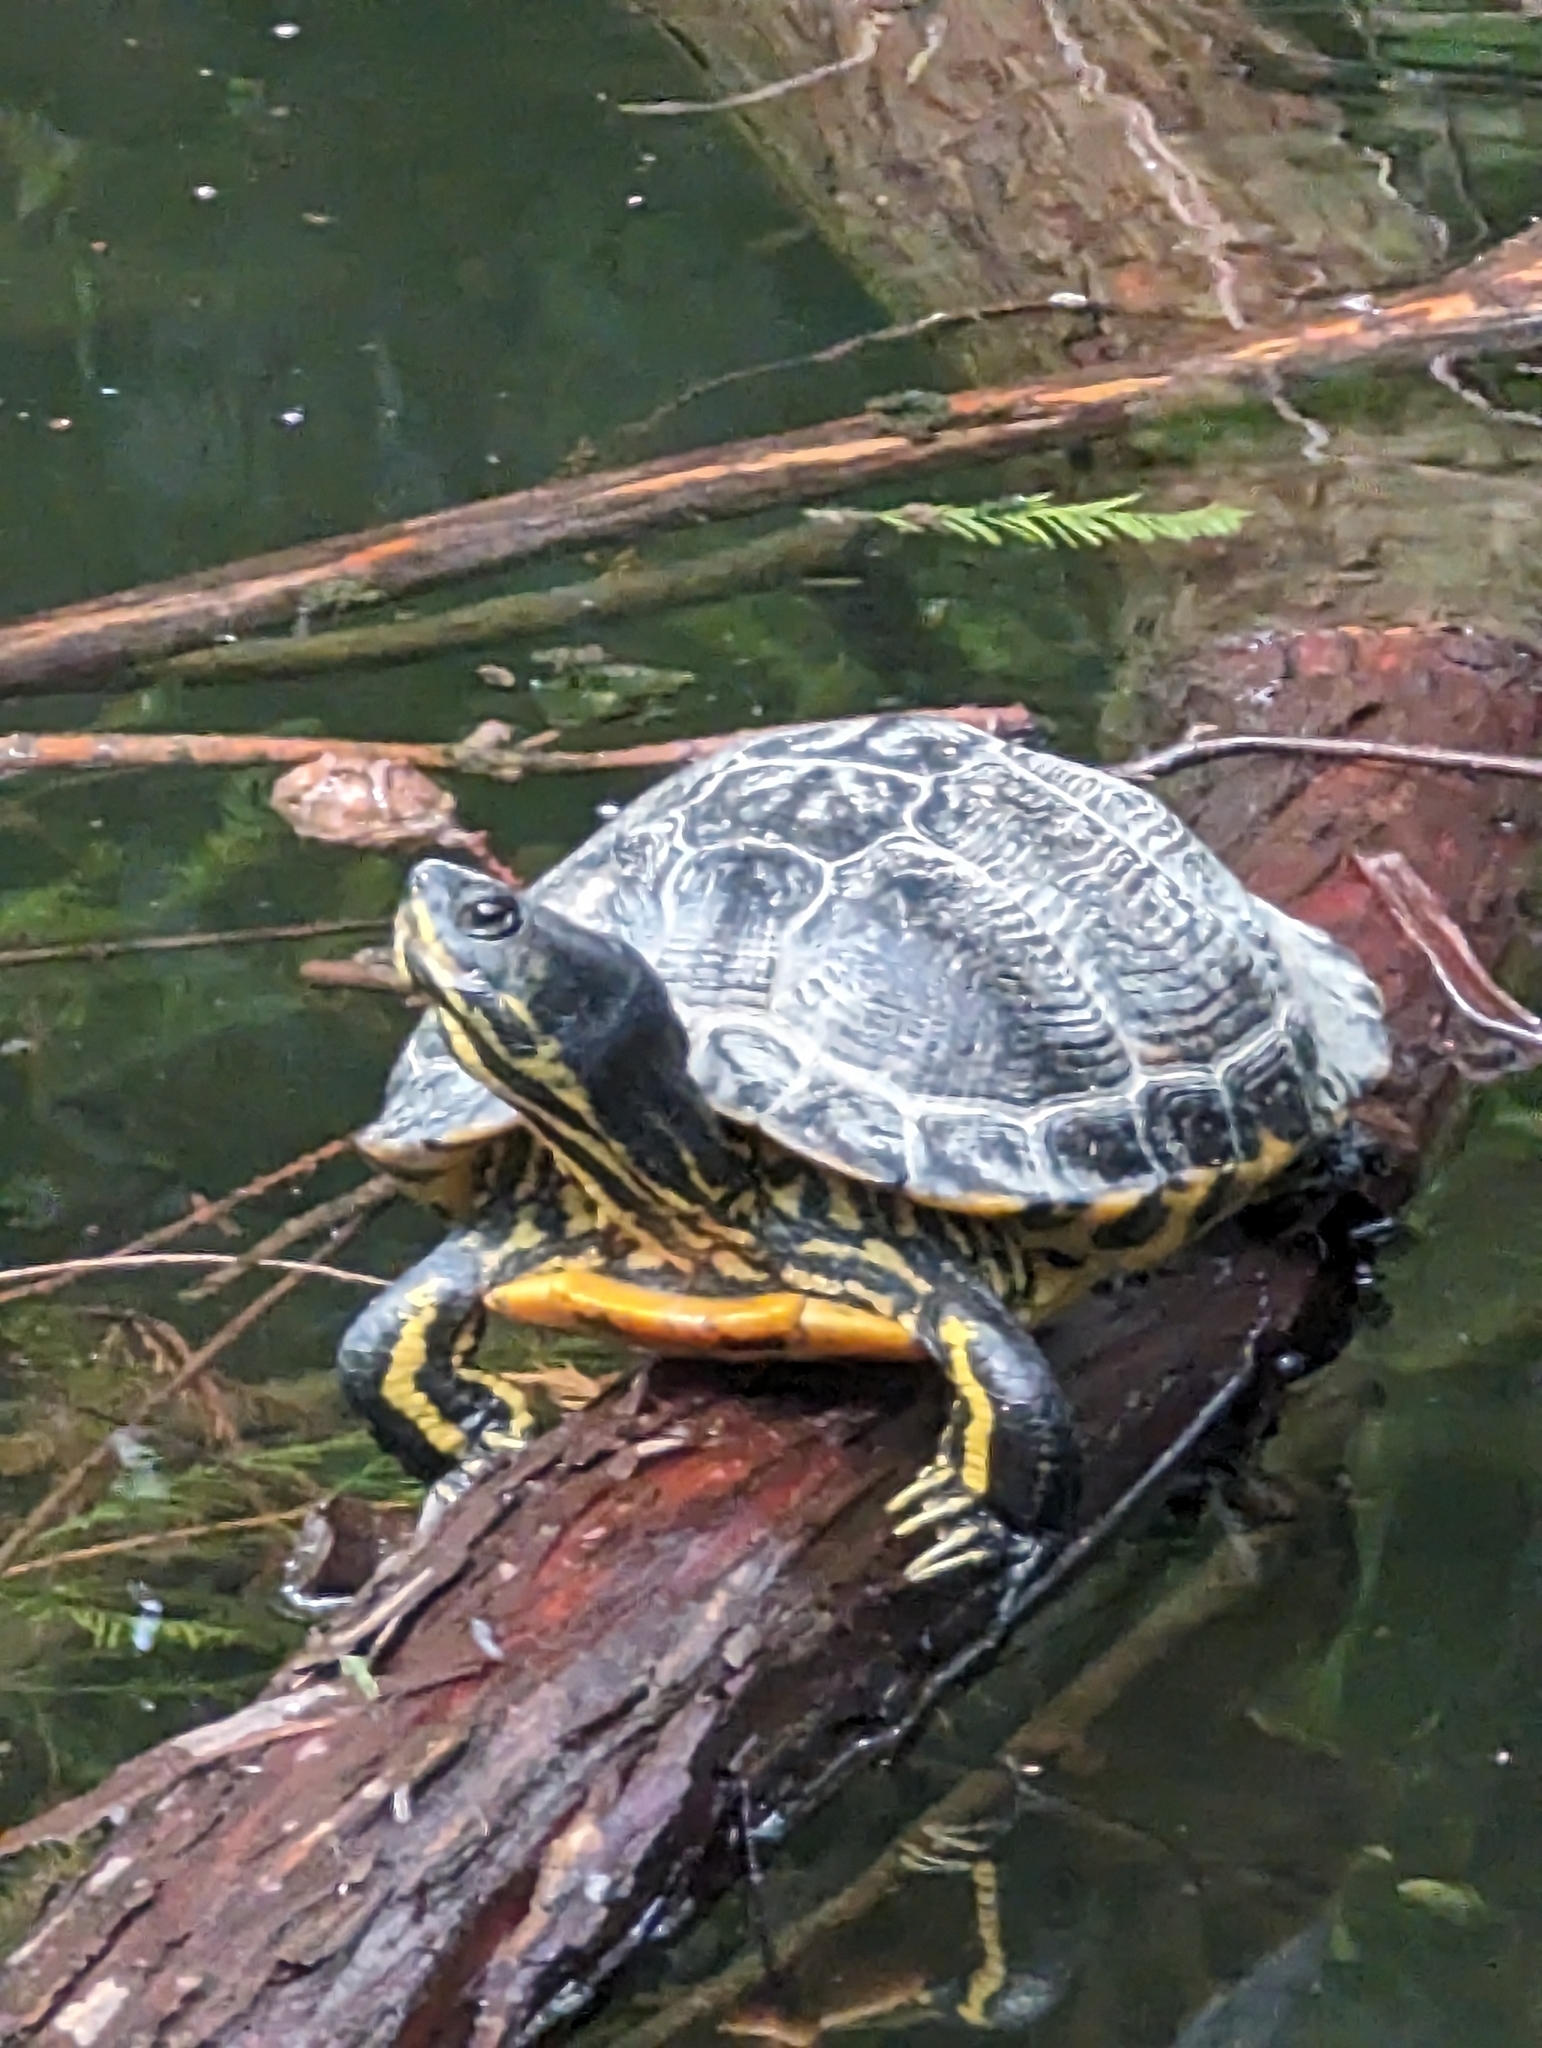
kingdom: Animalia
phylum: Chordata
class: Testudines
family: Emydidae
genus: Trachemys
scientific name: Trachemys scripta
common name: Slider
